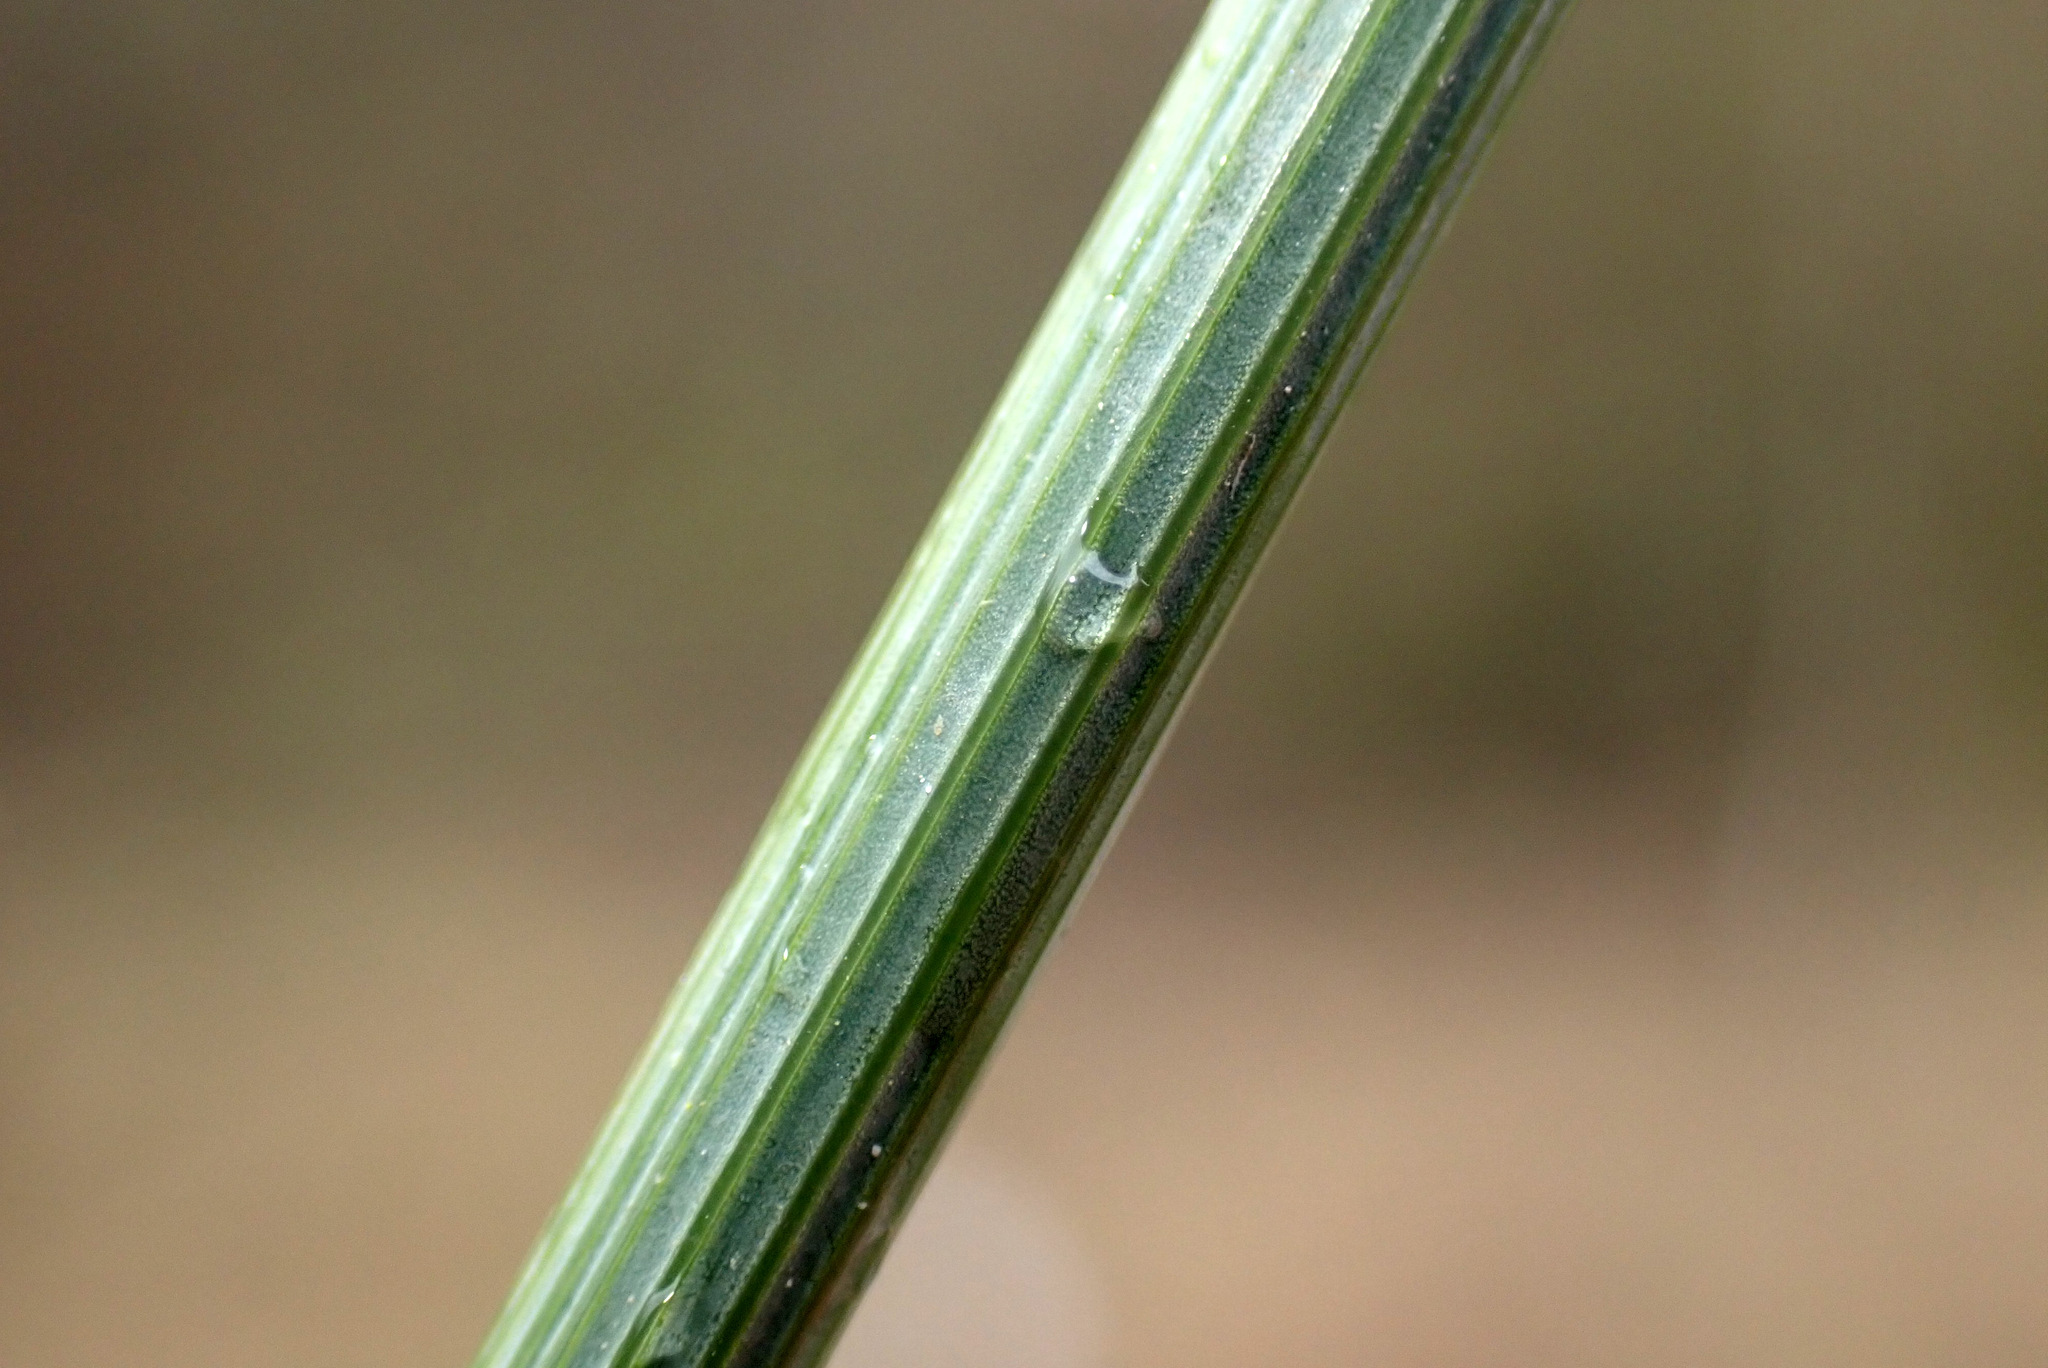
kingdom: Plantae
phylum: Tracheophyta
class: Liliopsida
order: Poales
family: Juncaceae
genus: Juncus
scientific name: Juncus inflexus
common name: Hard rush
